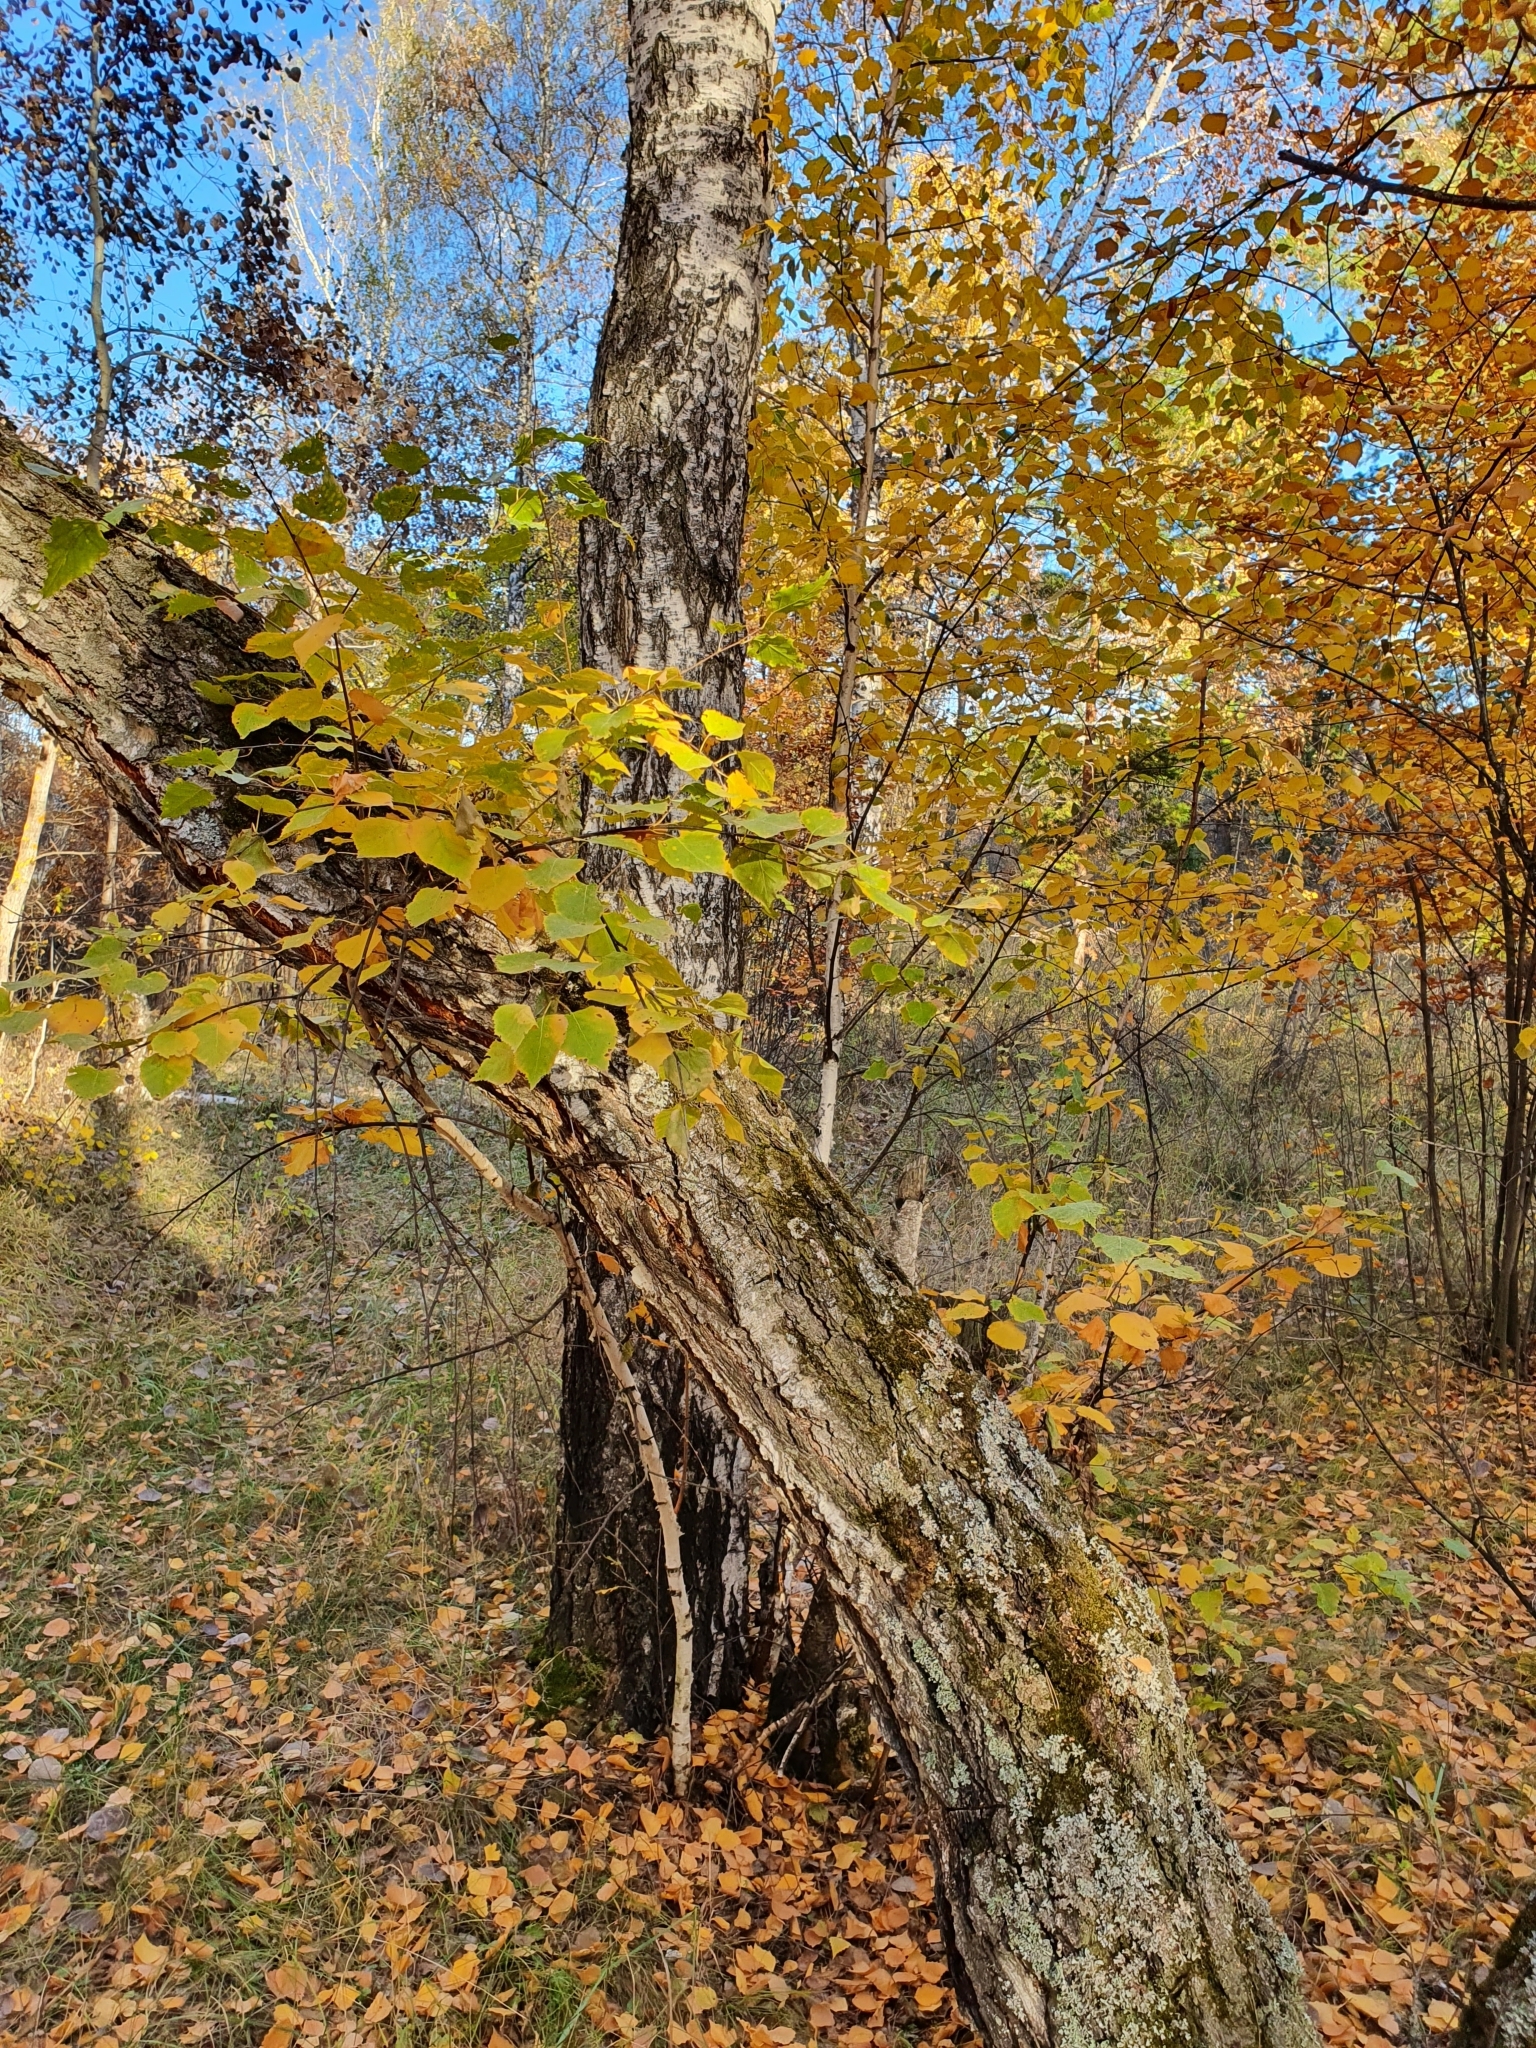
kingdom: Plantae
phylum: Tracheophyta
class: Magnoliopsida
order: Fagales
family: Betulaceae
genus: Betula
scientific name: Betula pendula
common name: Silver birch
